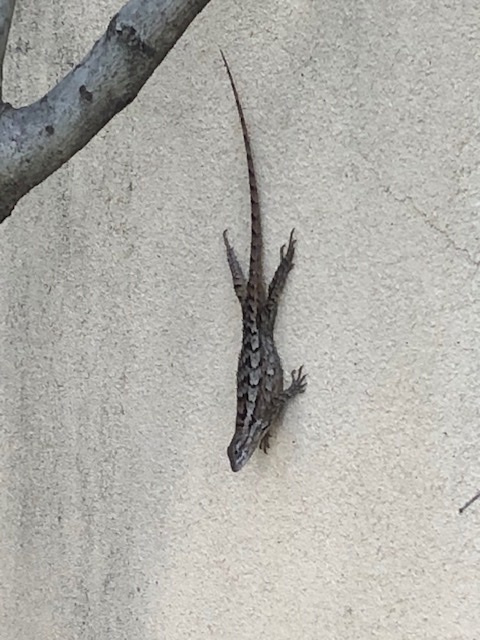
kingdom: Animalia
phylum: Chordata
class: Squamata
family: Phrynosomatidae
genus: Sceloporus
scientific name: Sceloporus olivaceus
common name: Texas spiny lizard
